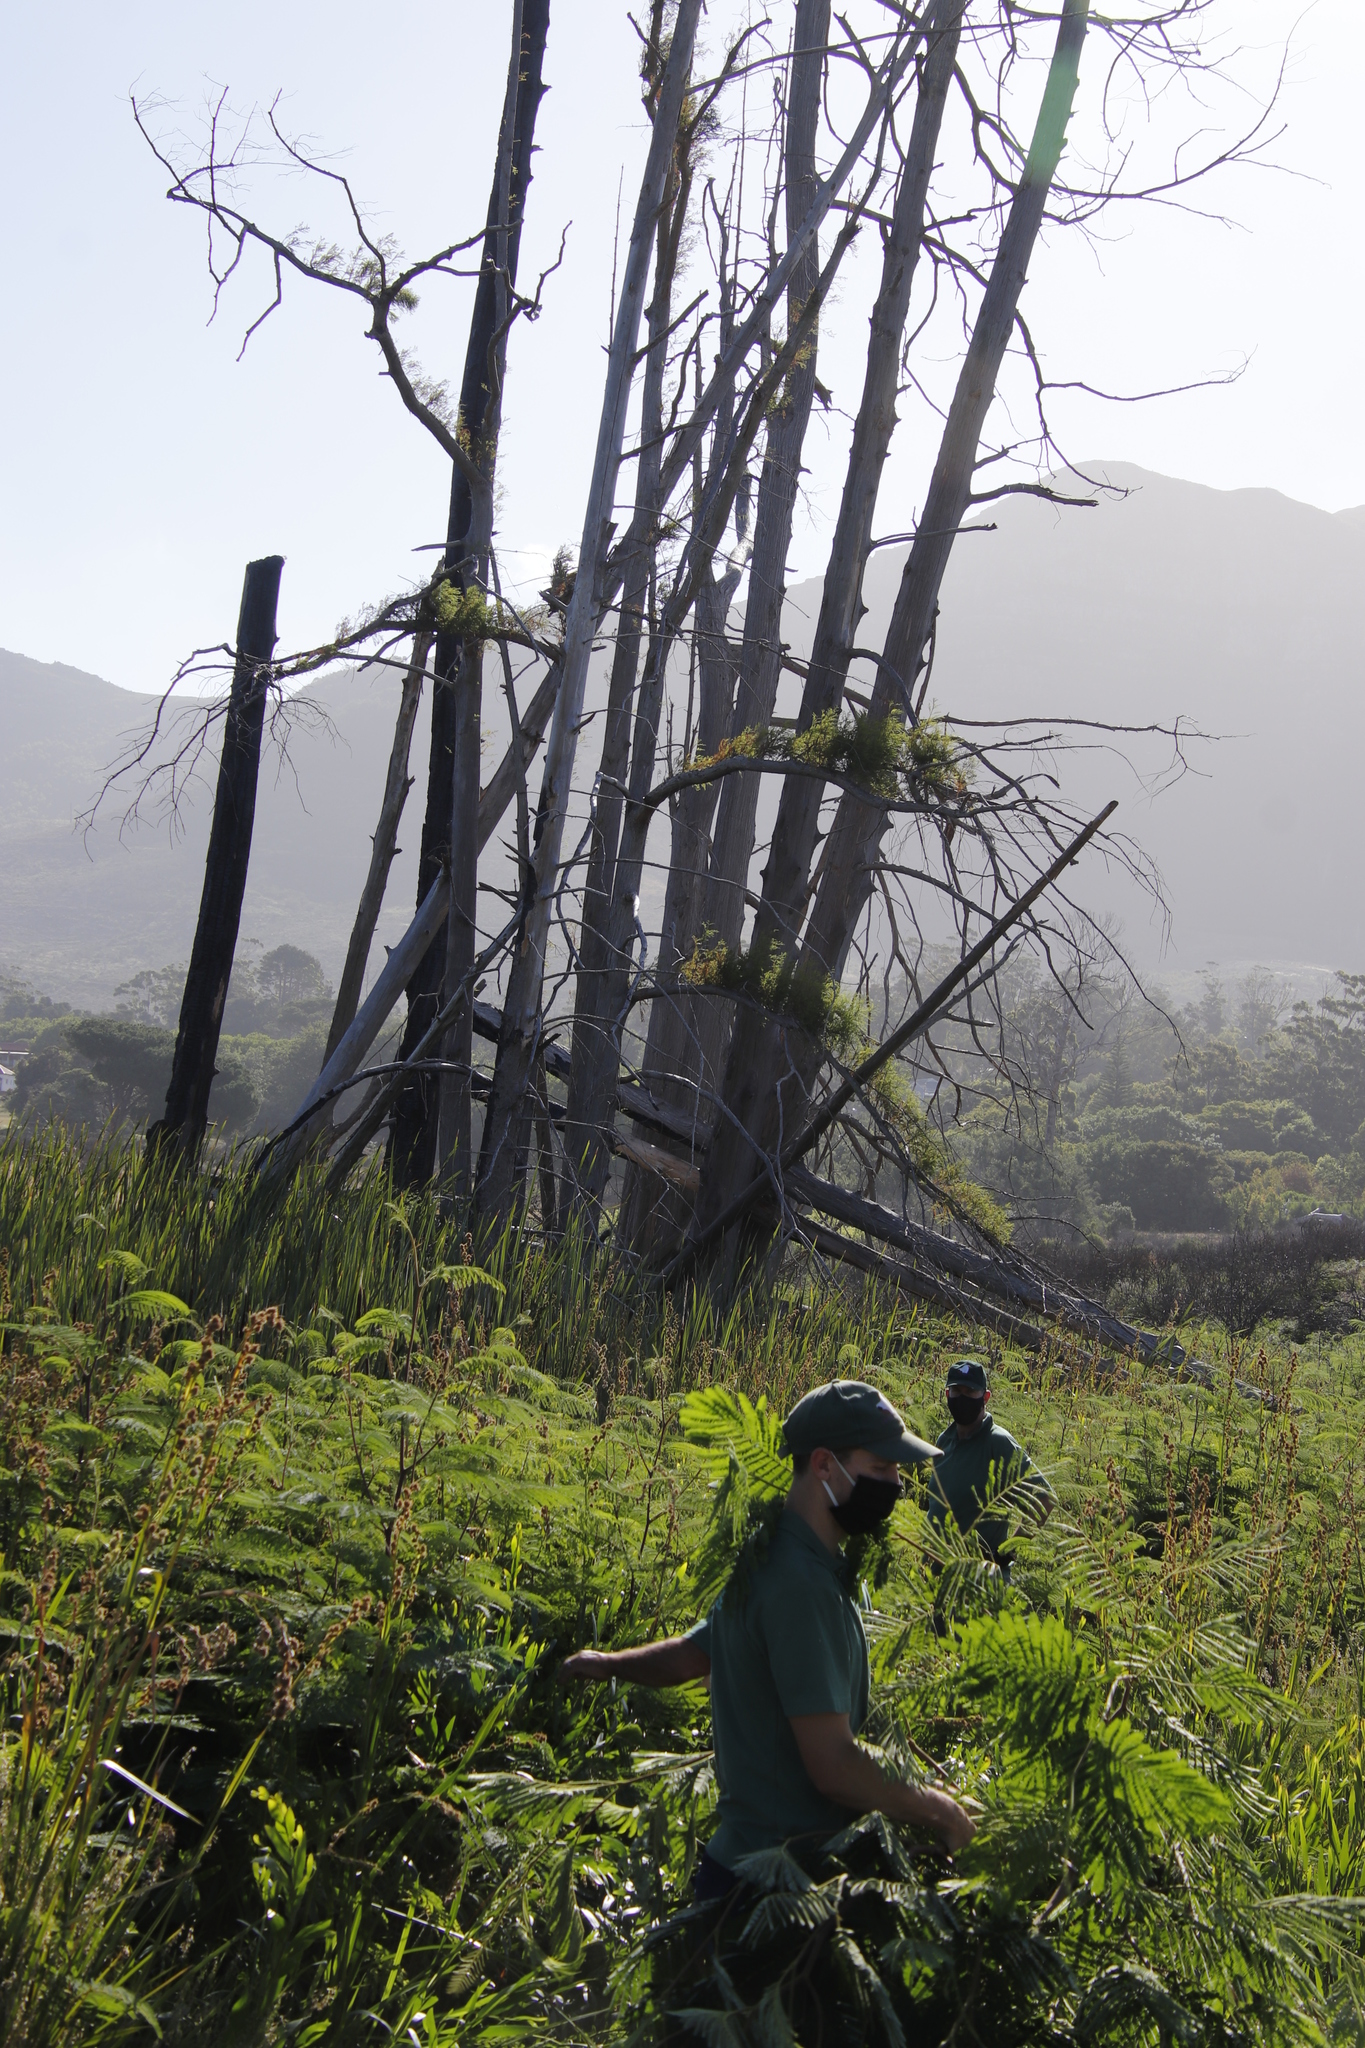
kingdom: Plantae
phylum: Tracheophyta
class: Pinopsida
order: Pinales
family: Cupressaceae
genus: Taxodium
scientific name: Taxodium distichum
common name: Bald cypress
